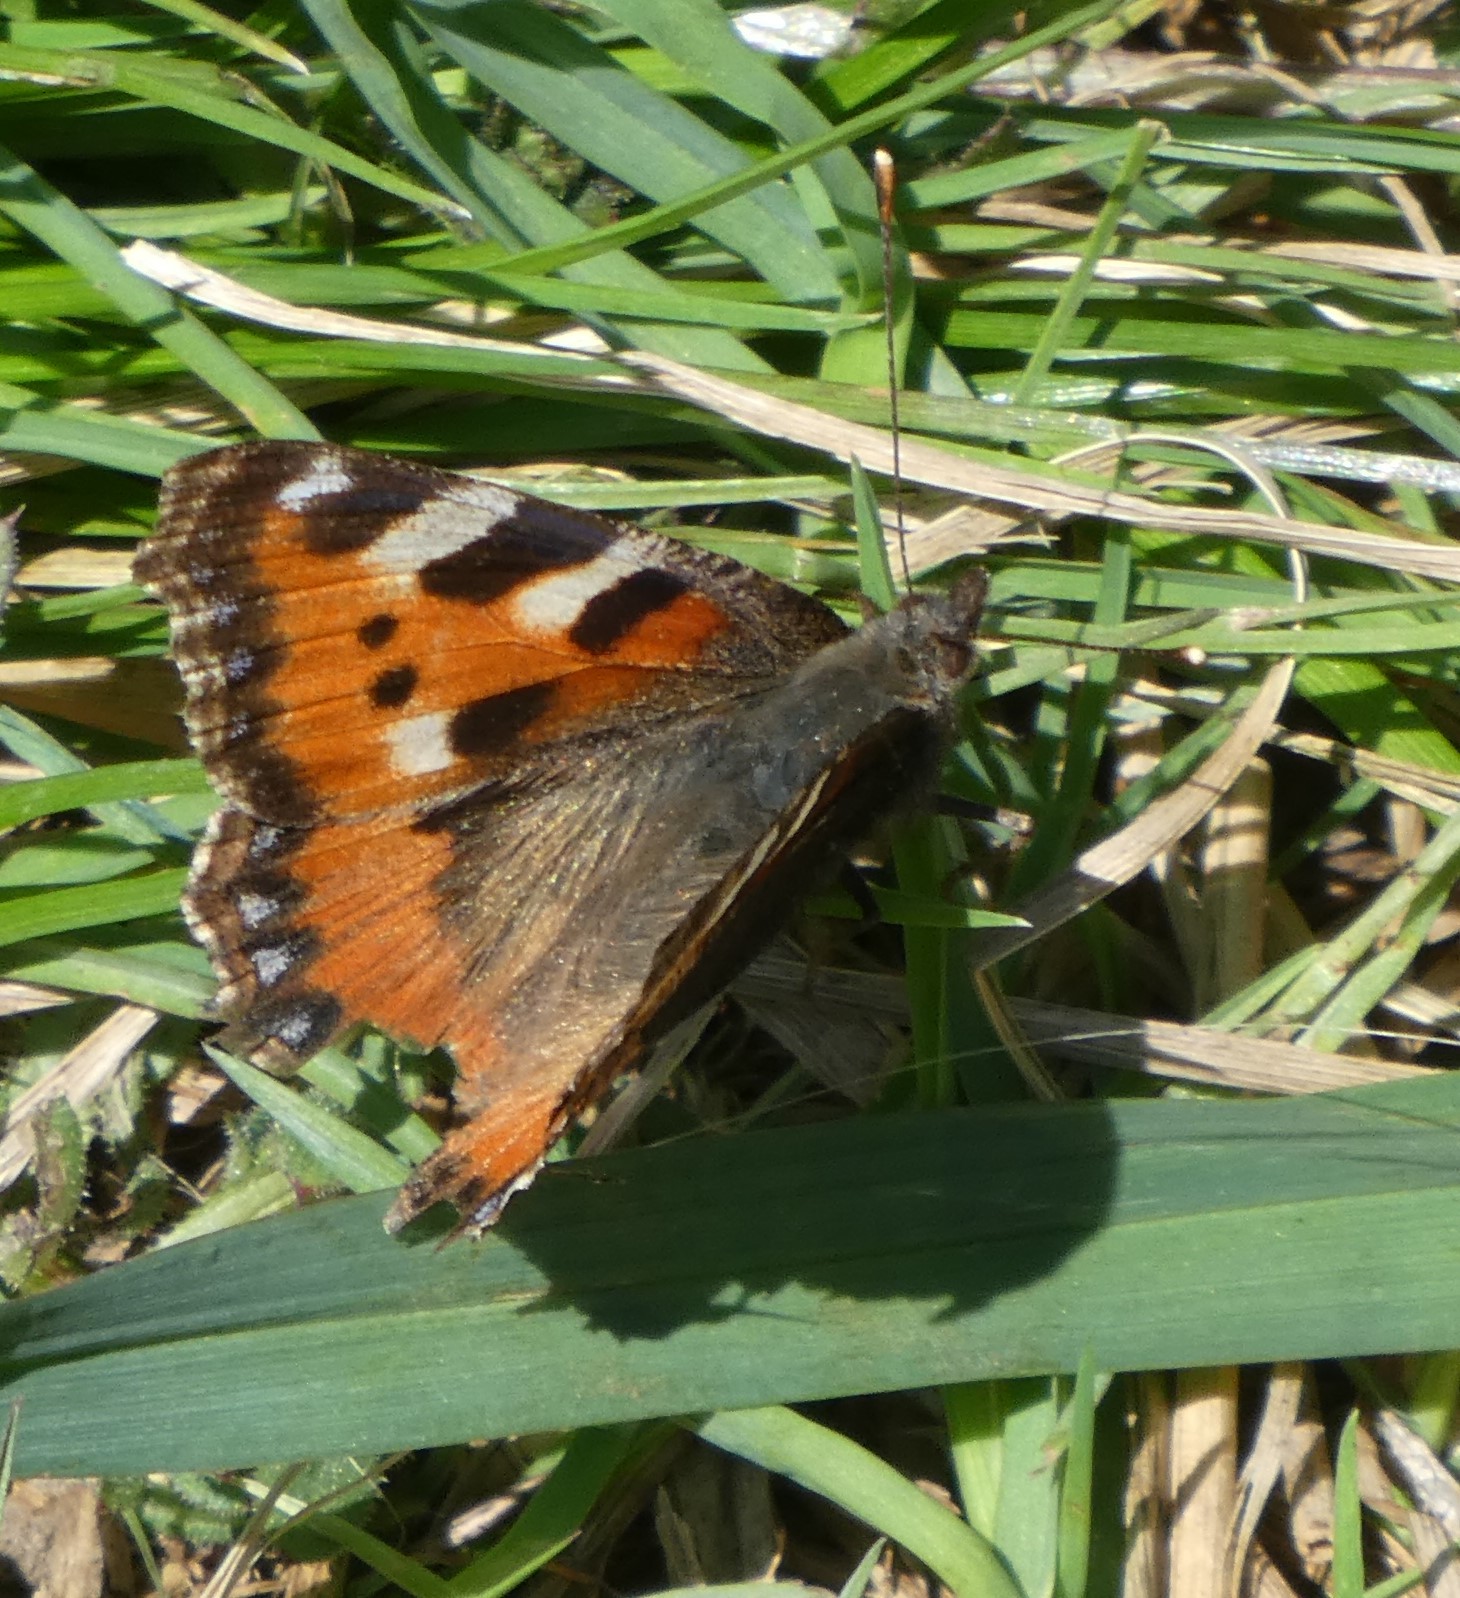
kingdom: Animalia
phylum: Arthropoda
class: Insecta
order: Lepidoptera
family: Nymphalidae
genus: Aglais
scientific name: Aglais urticae
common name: Small tortoiseshell
